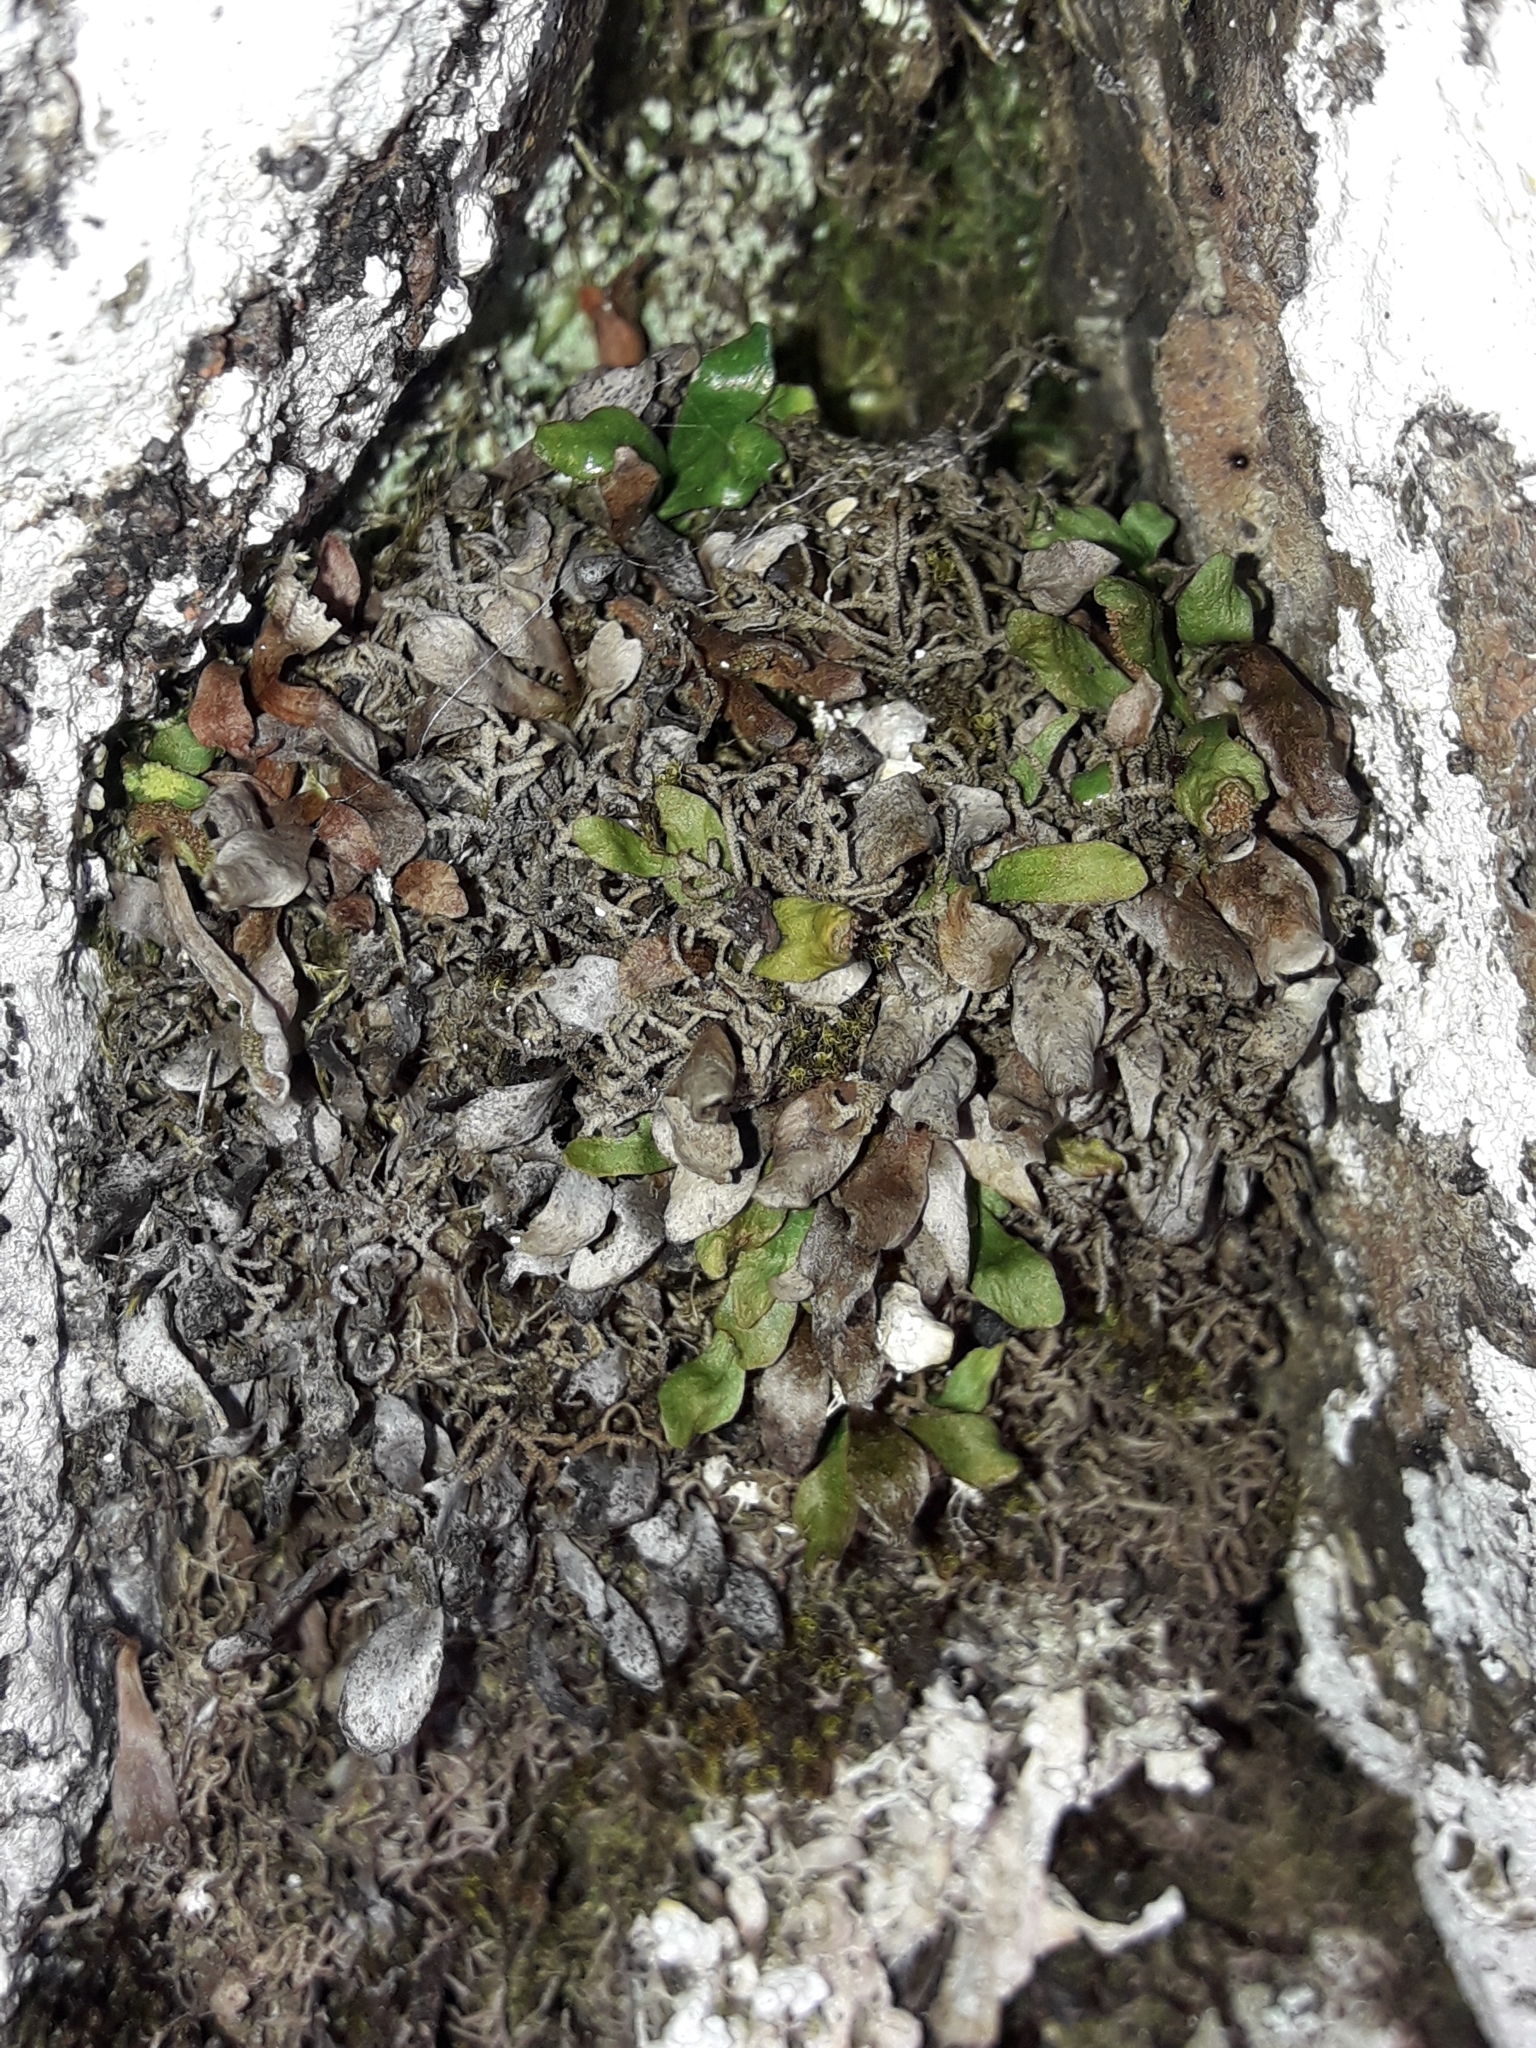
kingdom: Plantae
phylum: Tracheophyta
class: Polypodiopsida
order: Polypodiales
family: Polypodiaceae
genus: Notogrammitis
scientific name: Notogrammitis crassior
